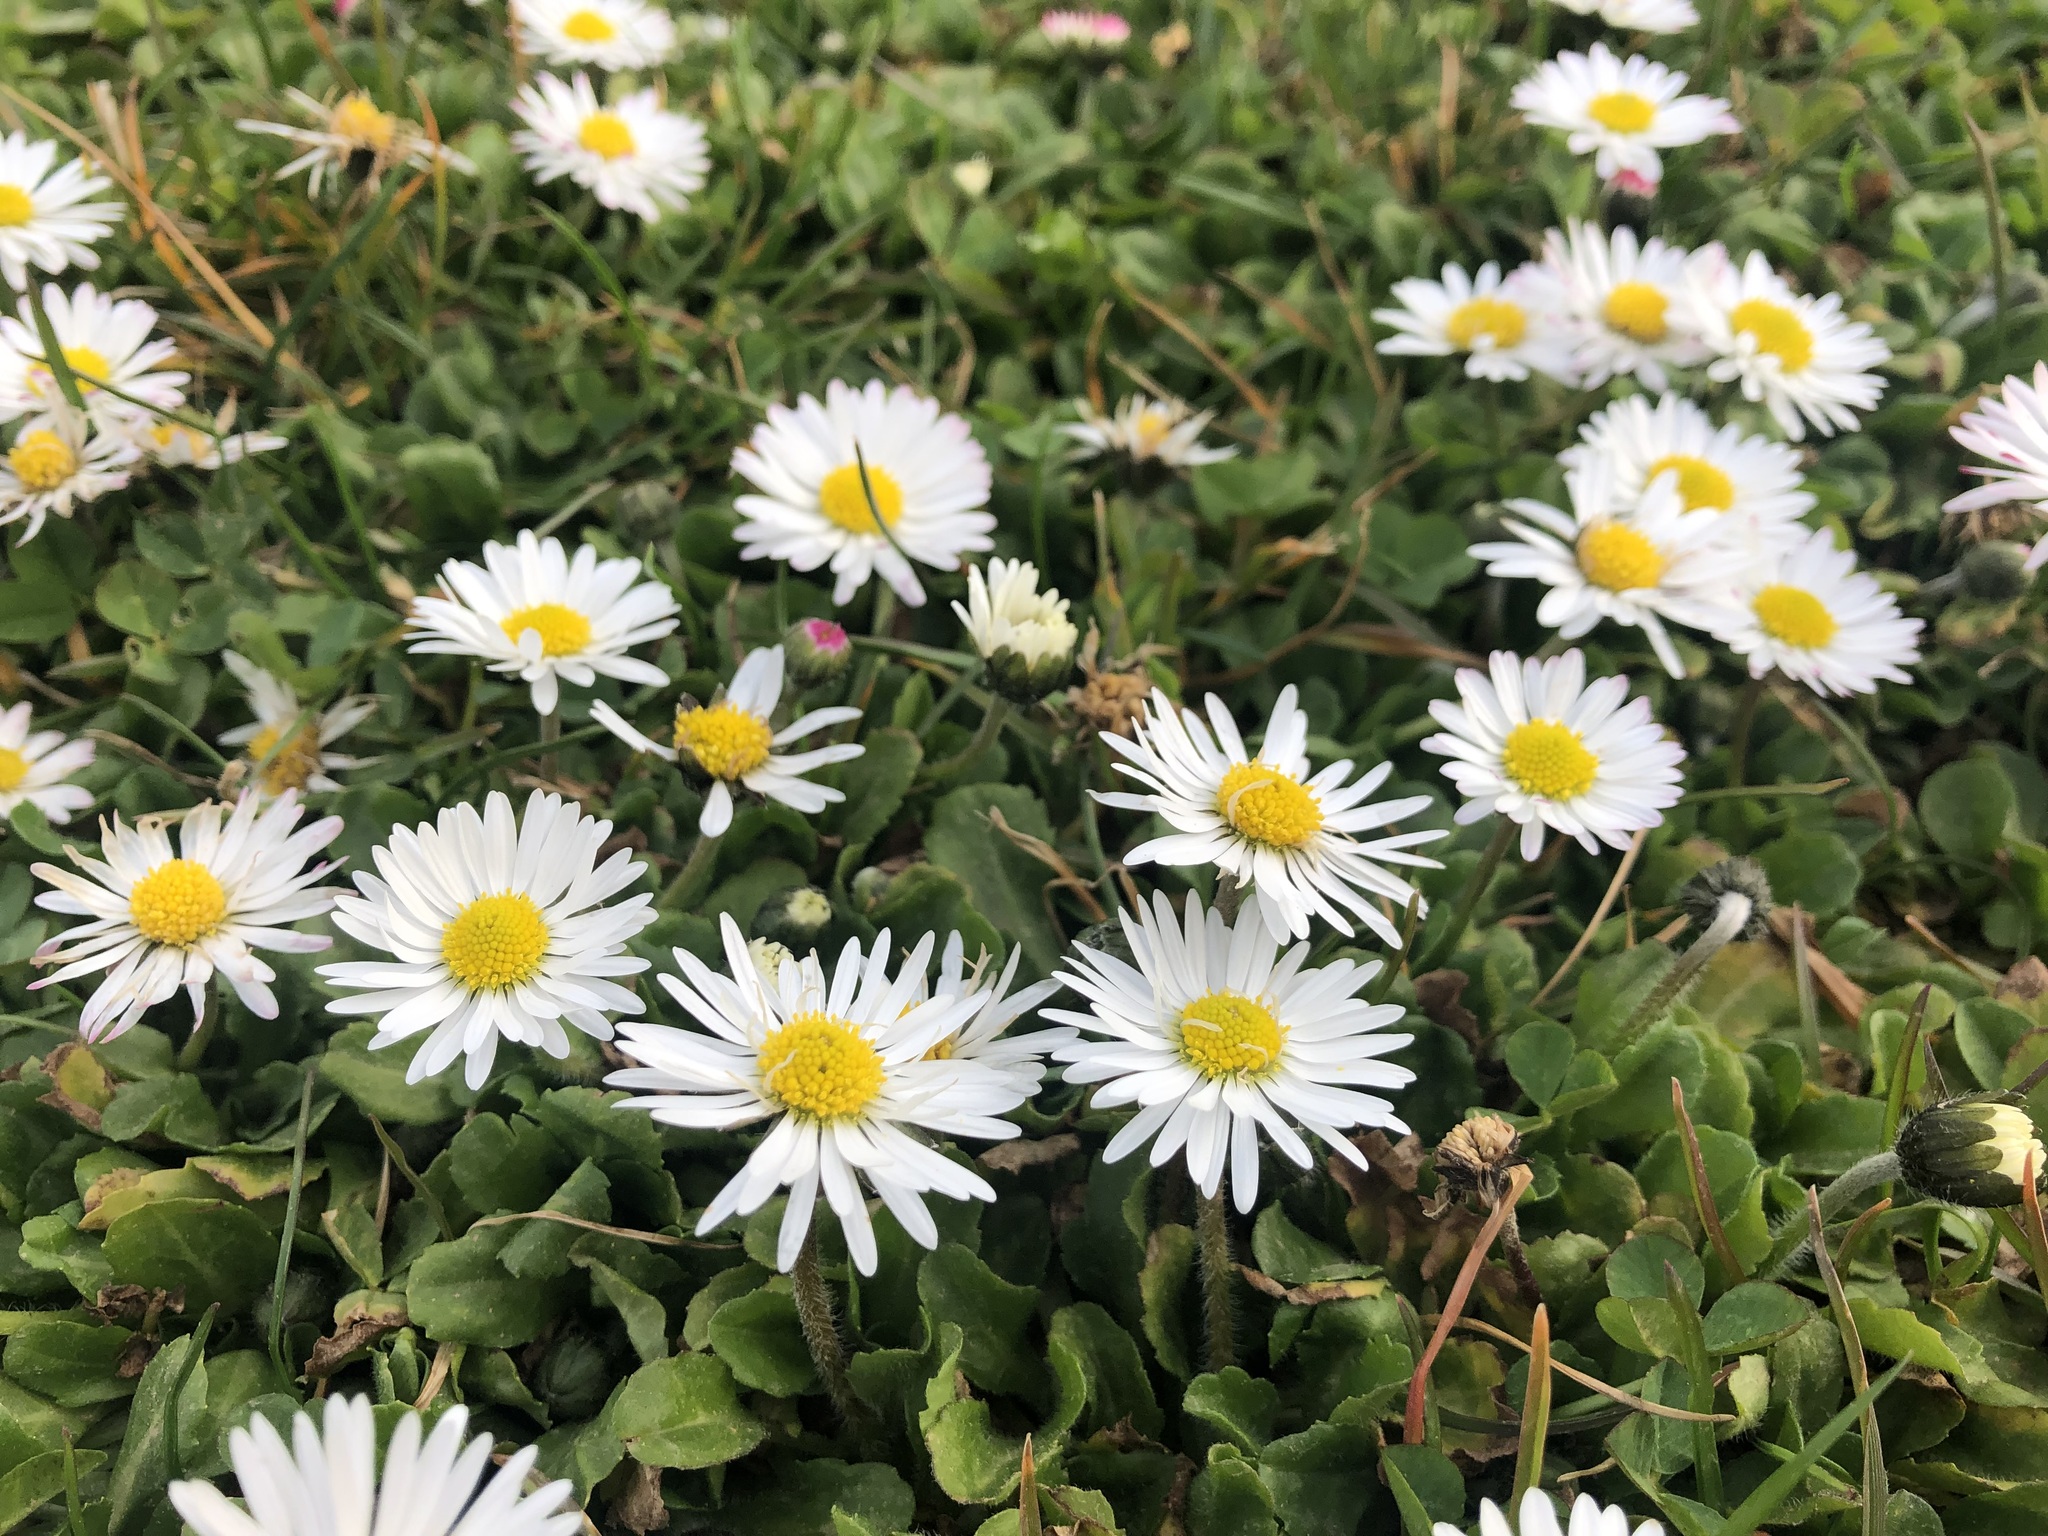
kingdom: Plantae
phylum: Tracheophyta
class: Magnoliopsida
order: Asterales
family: Asteraceae
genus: Bellis
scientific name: Bellis perennis
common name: Lawndaisy
